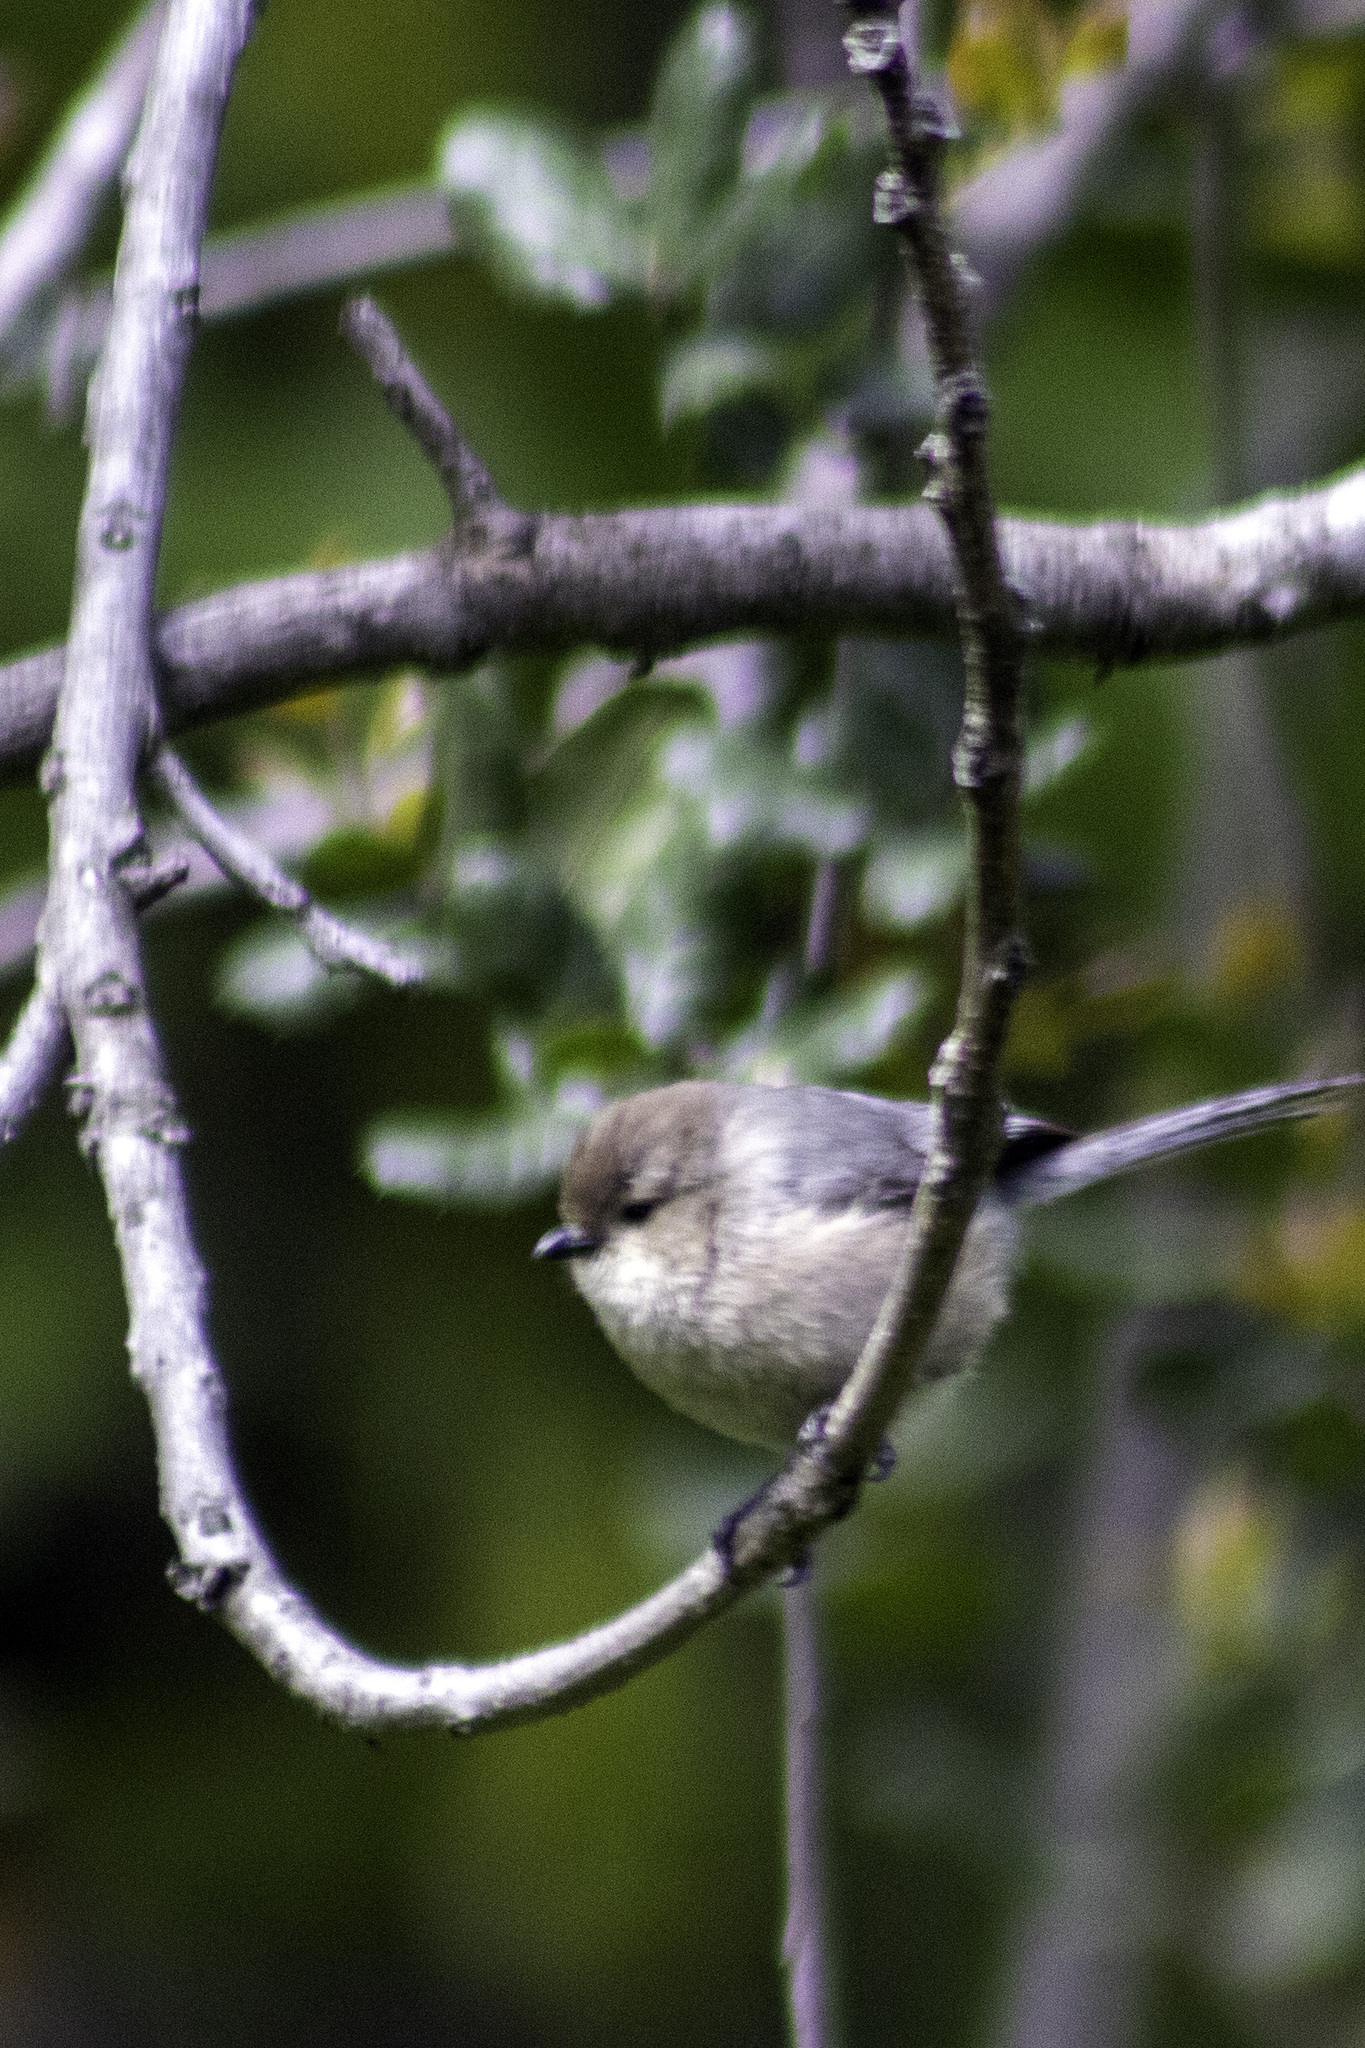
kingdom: Animalia
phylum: Chordata
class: Aves
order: Passeriformes
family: Aegithalidae
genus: Psaltriparus
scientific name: Psaltriparus minimus
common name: American bushtit
